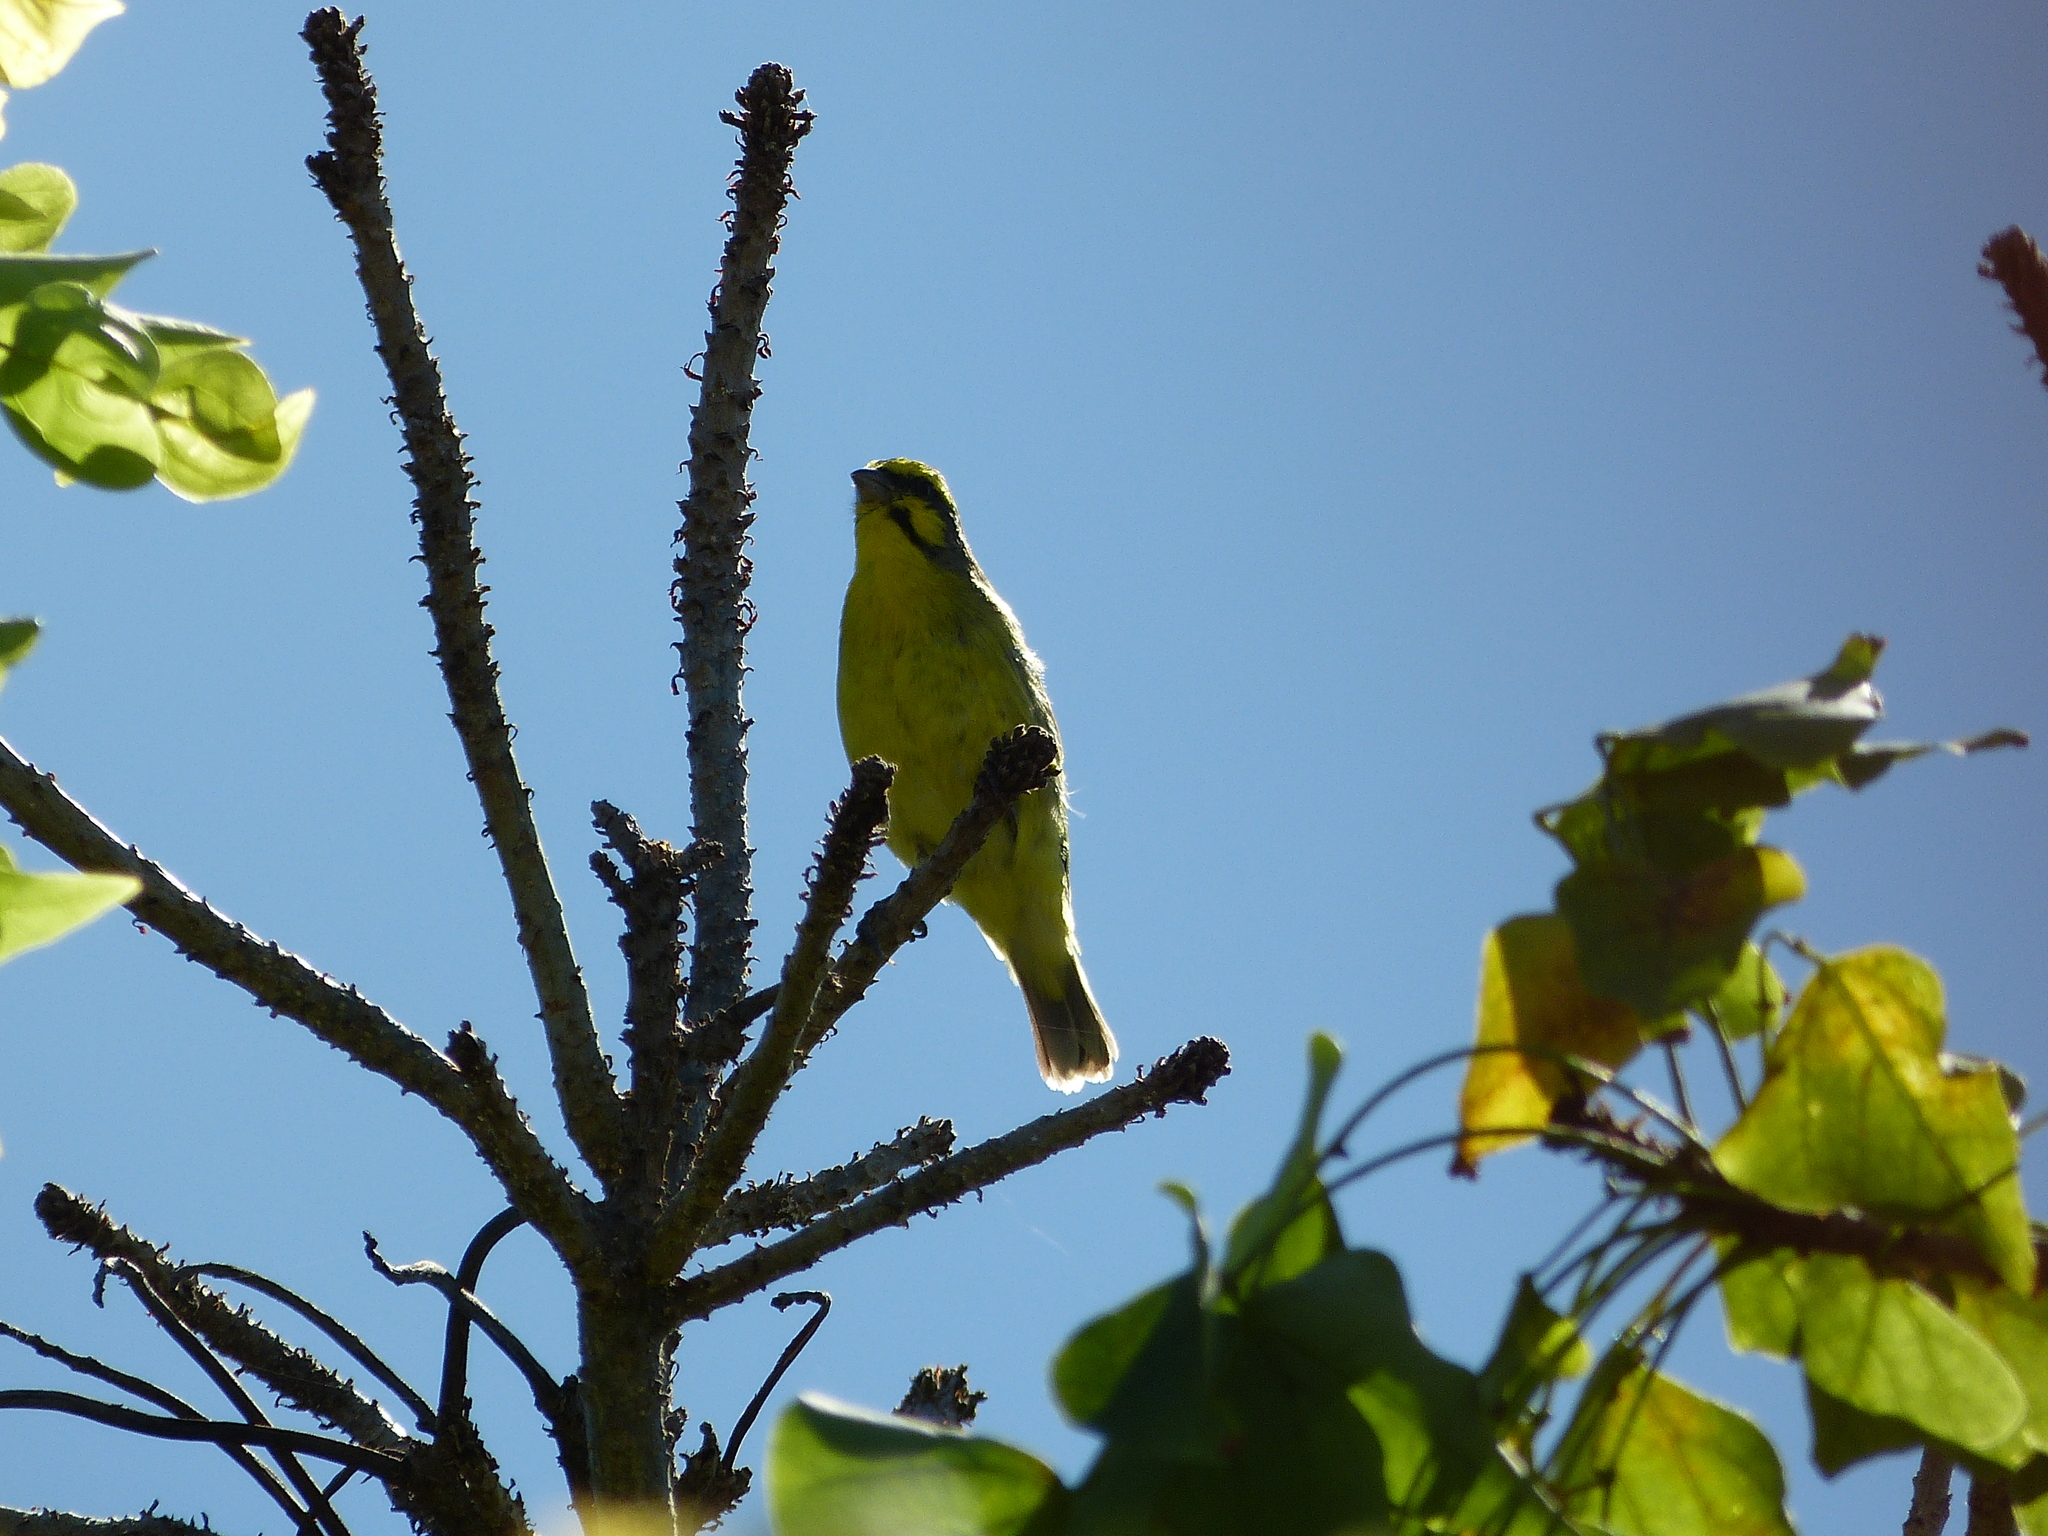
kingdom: Animalia
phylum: Chordata
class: Aves
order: Passeriformes
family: Fringillidae
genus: Crithagra
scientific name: Crithagra mozambica
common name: Yellow-fronted canary
